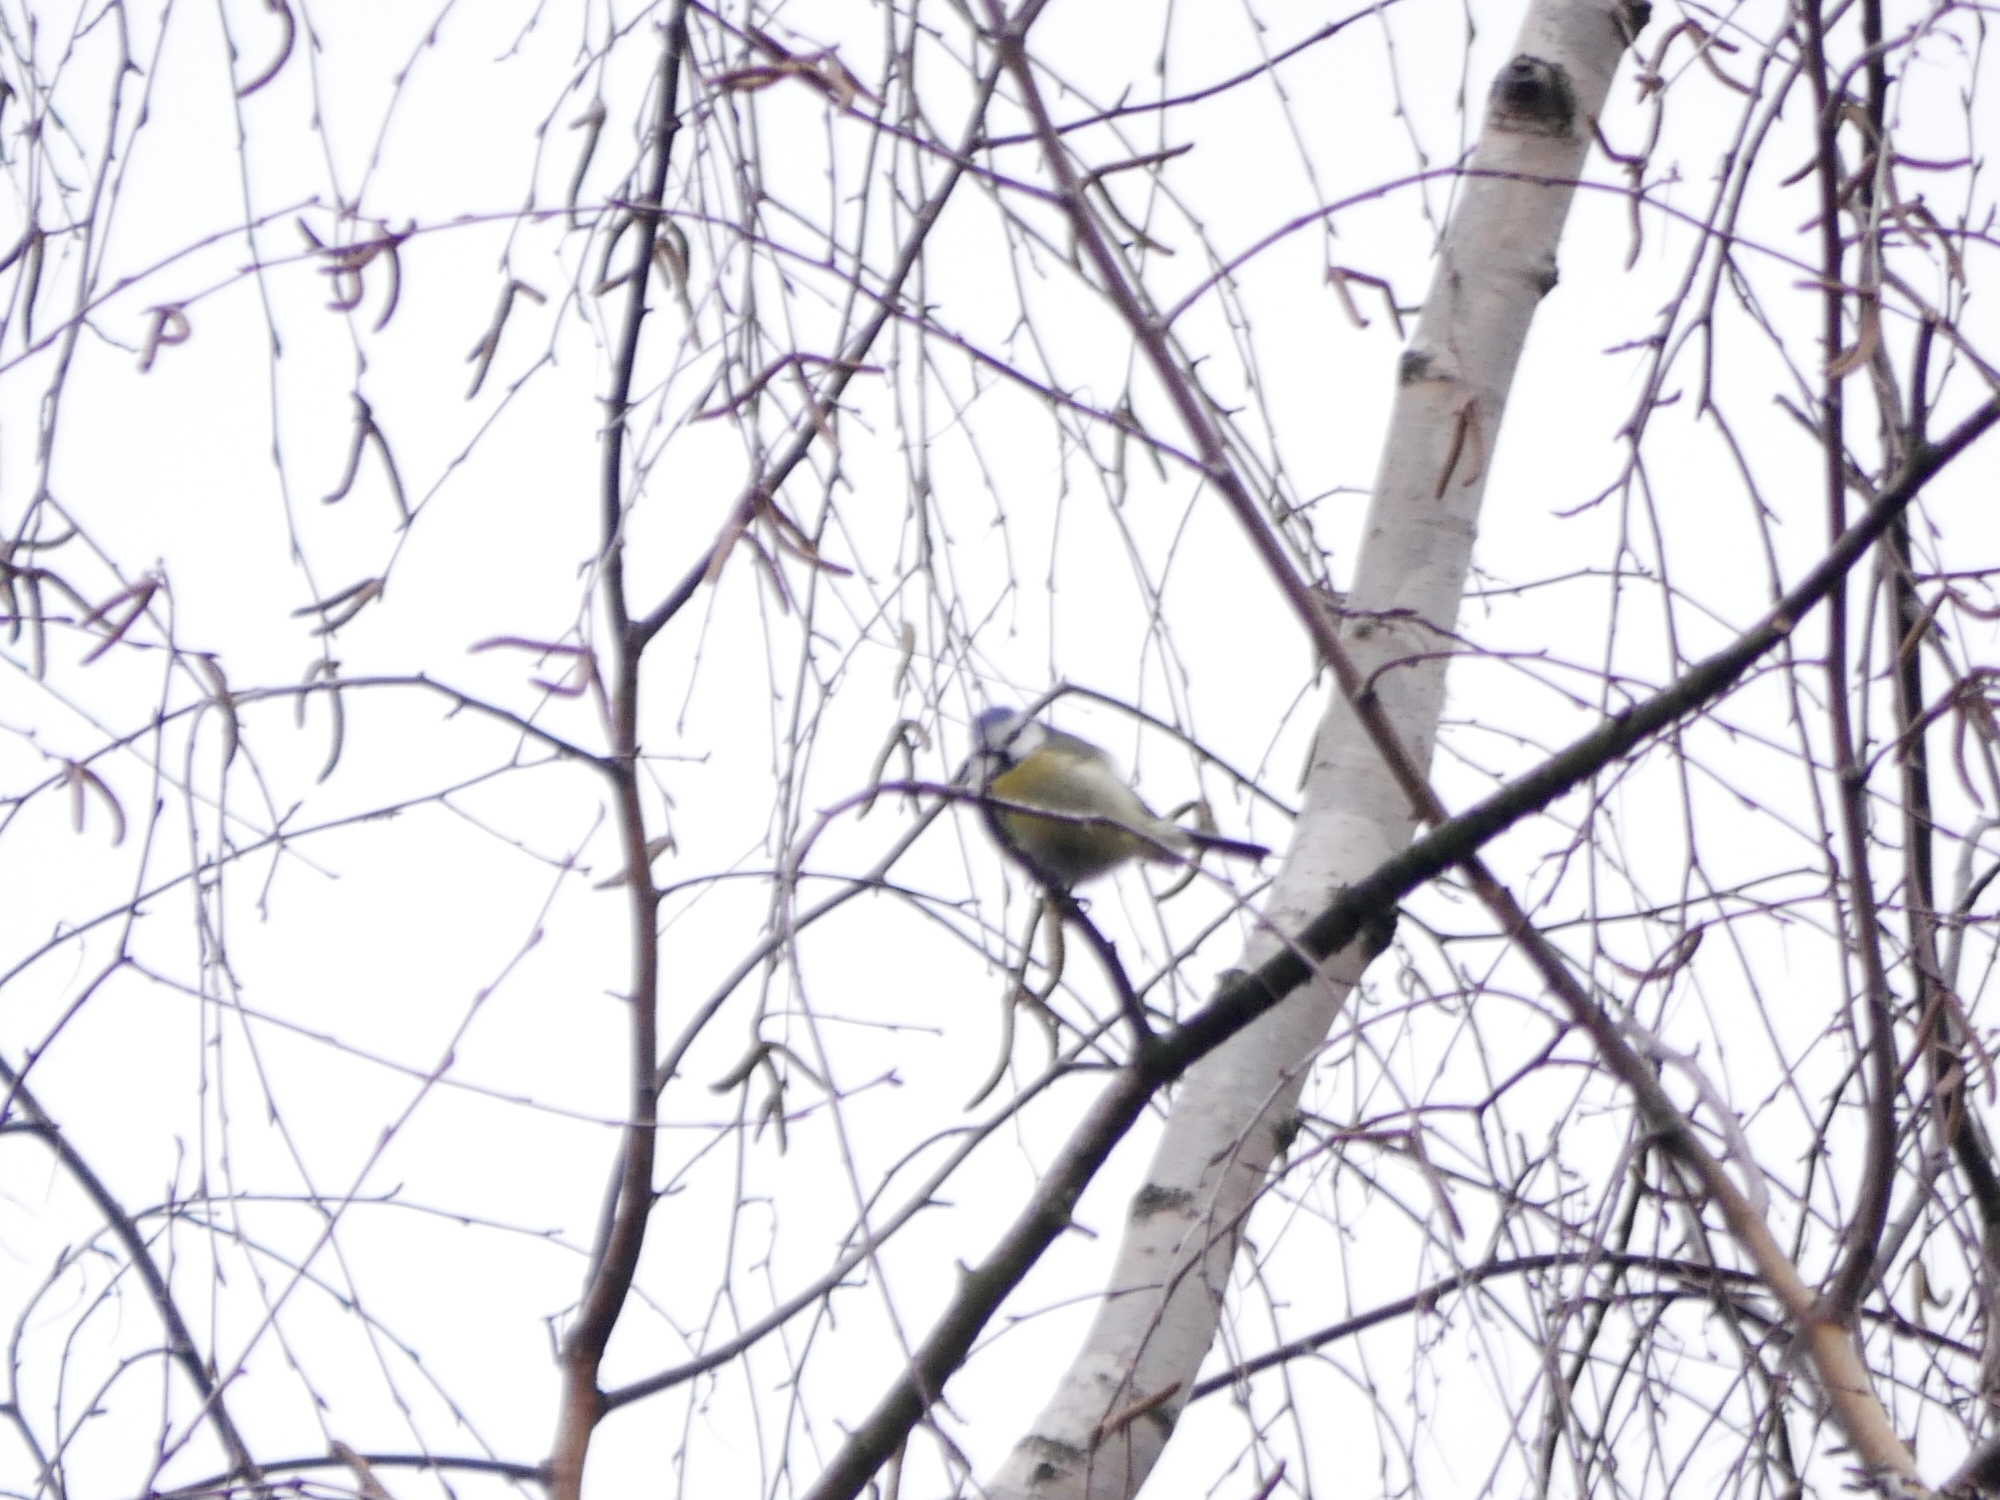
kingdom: Animalia
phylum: Chordata
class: Aves
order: Passeriformes
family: Paridae
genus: Cyanistes
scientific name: Cyanistes caeruleus
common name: Eurasian blue tit
